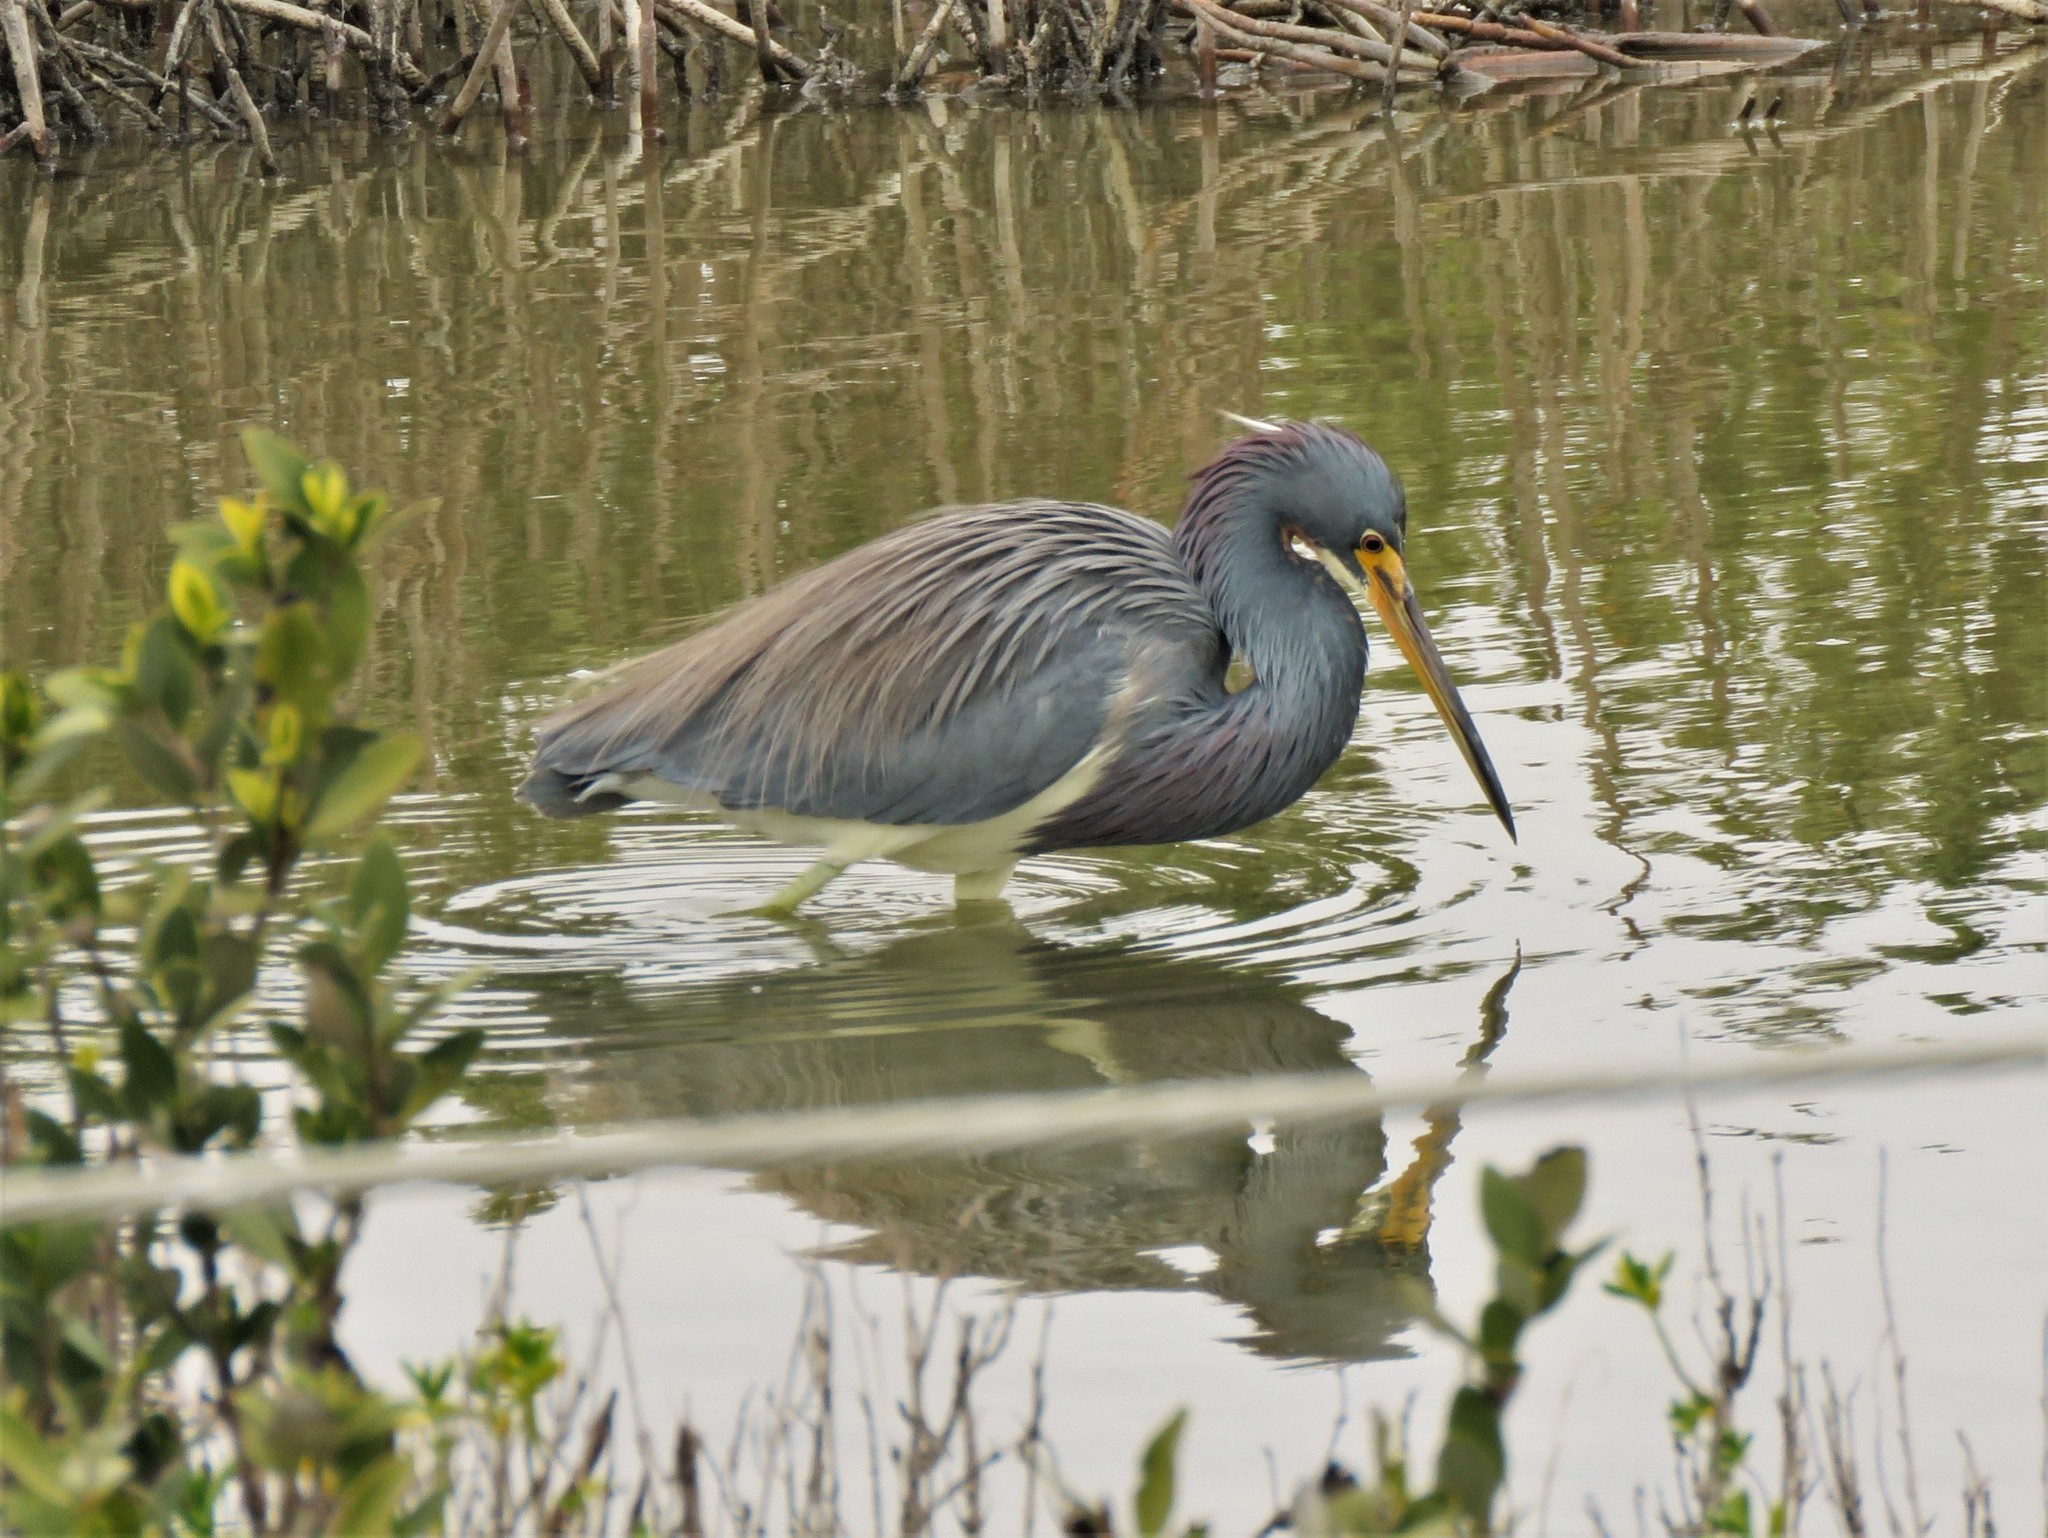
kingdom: Animalia
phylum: Chordata
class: Aves
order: Pelecaniformes
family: Ardeidae
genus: Egretta
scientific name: Egretta tricolor
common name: Tricolored heron
